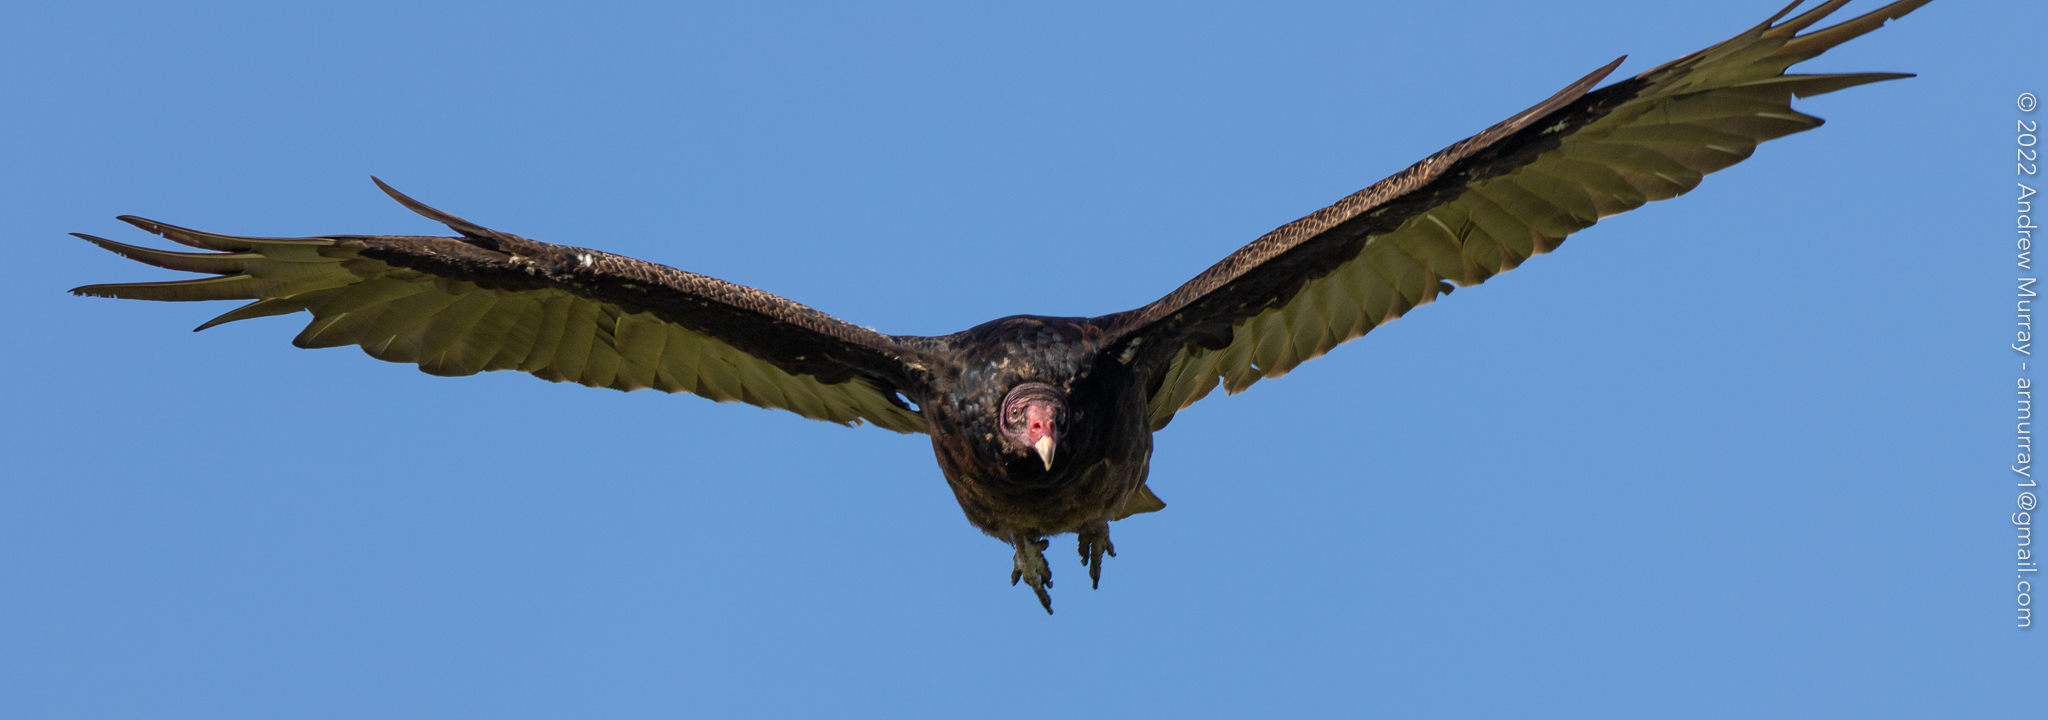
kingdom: Animalia
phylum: Chordata
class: Aves
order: Accipitriformes
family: Cathartidae
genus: Cathartes
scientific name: Cathartes aura
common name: Turkey vulture
